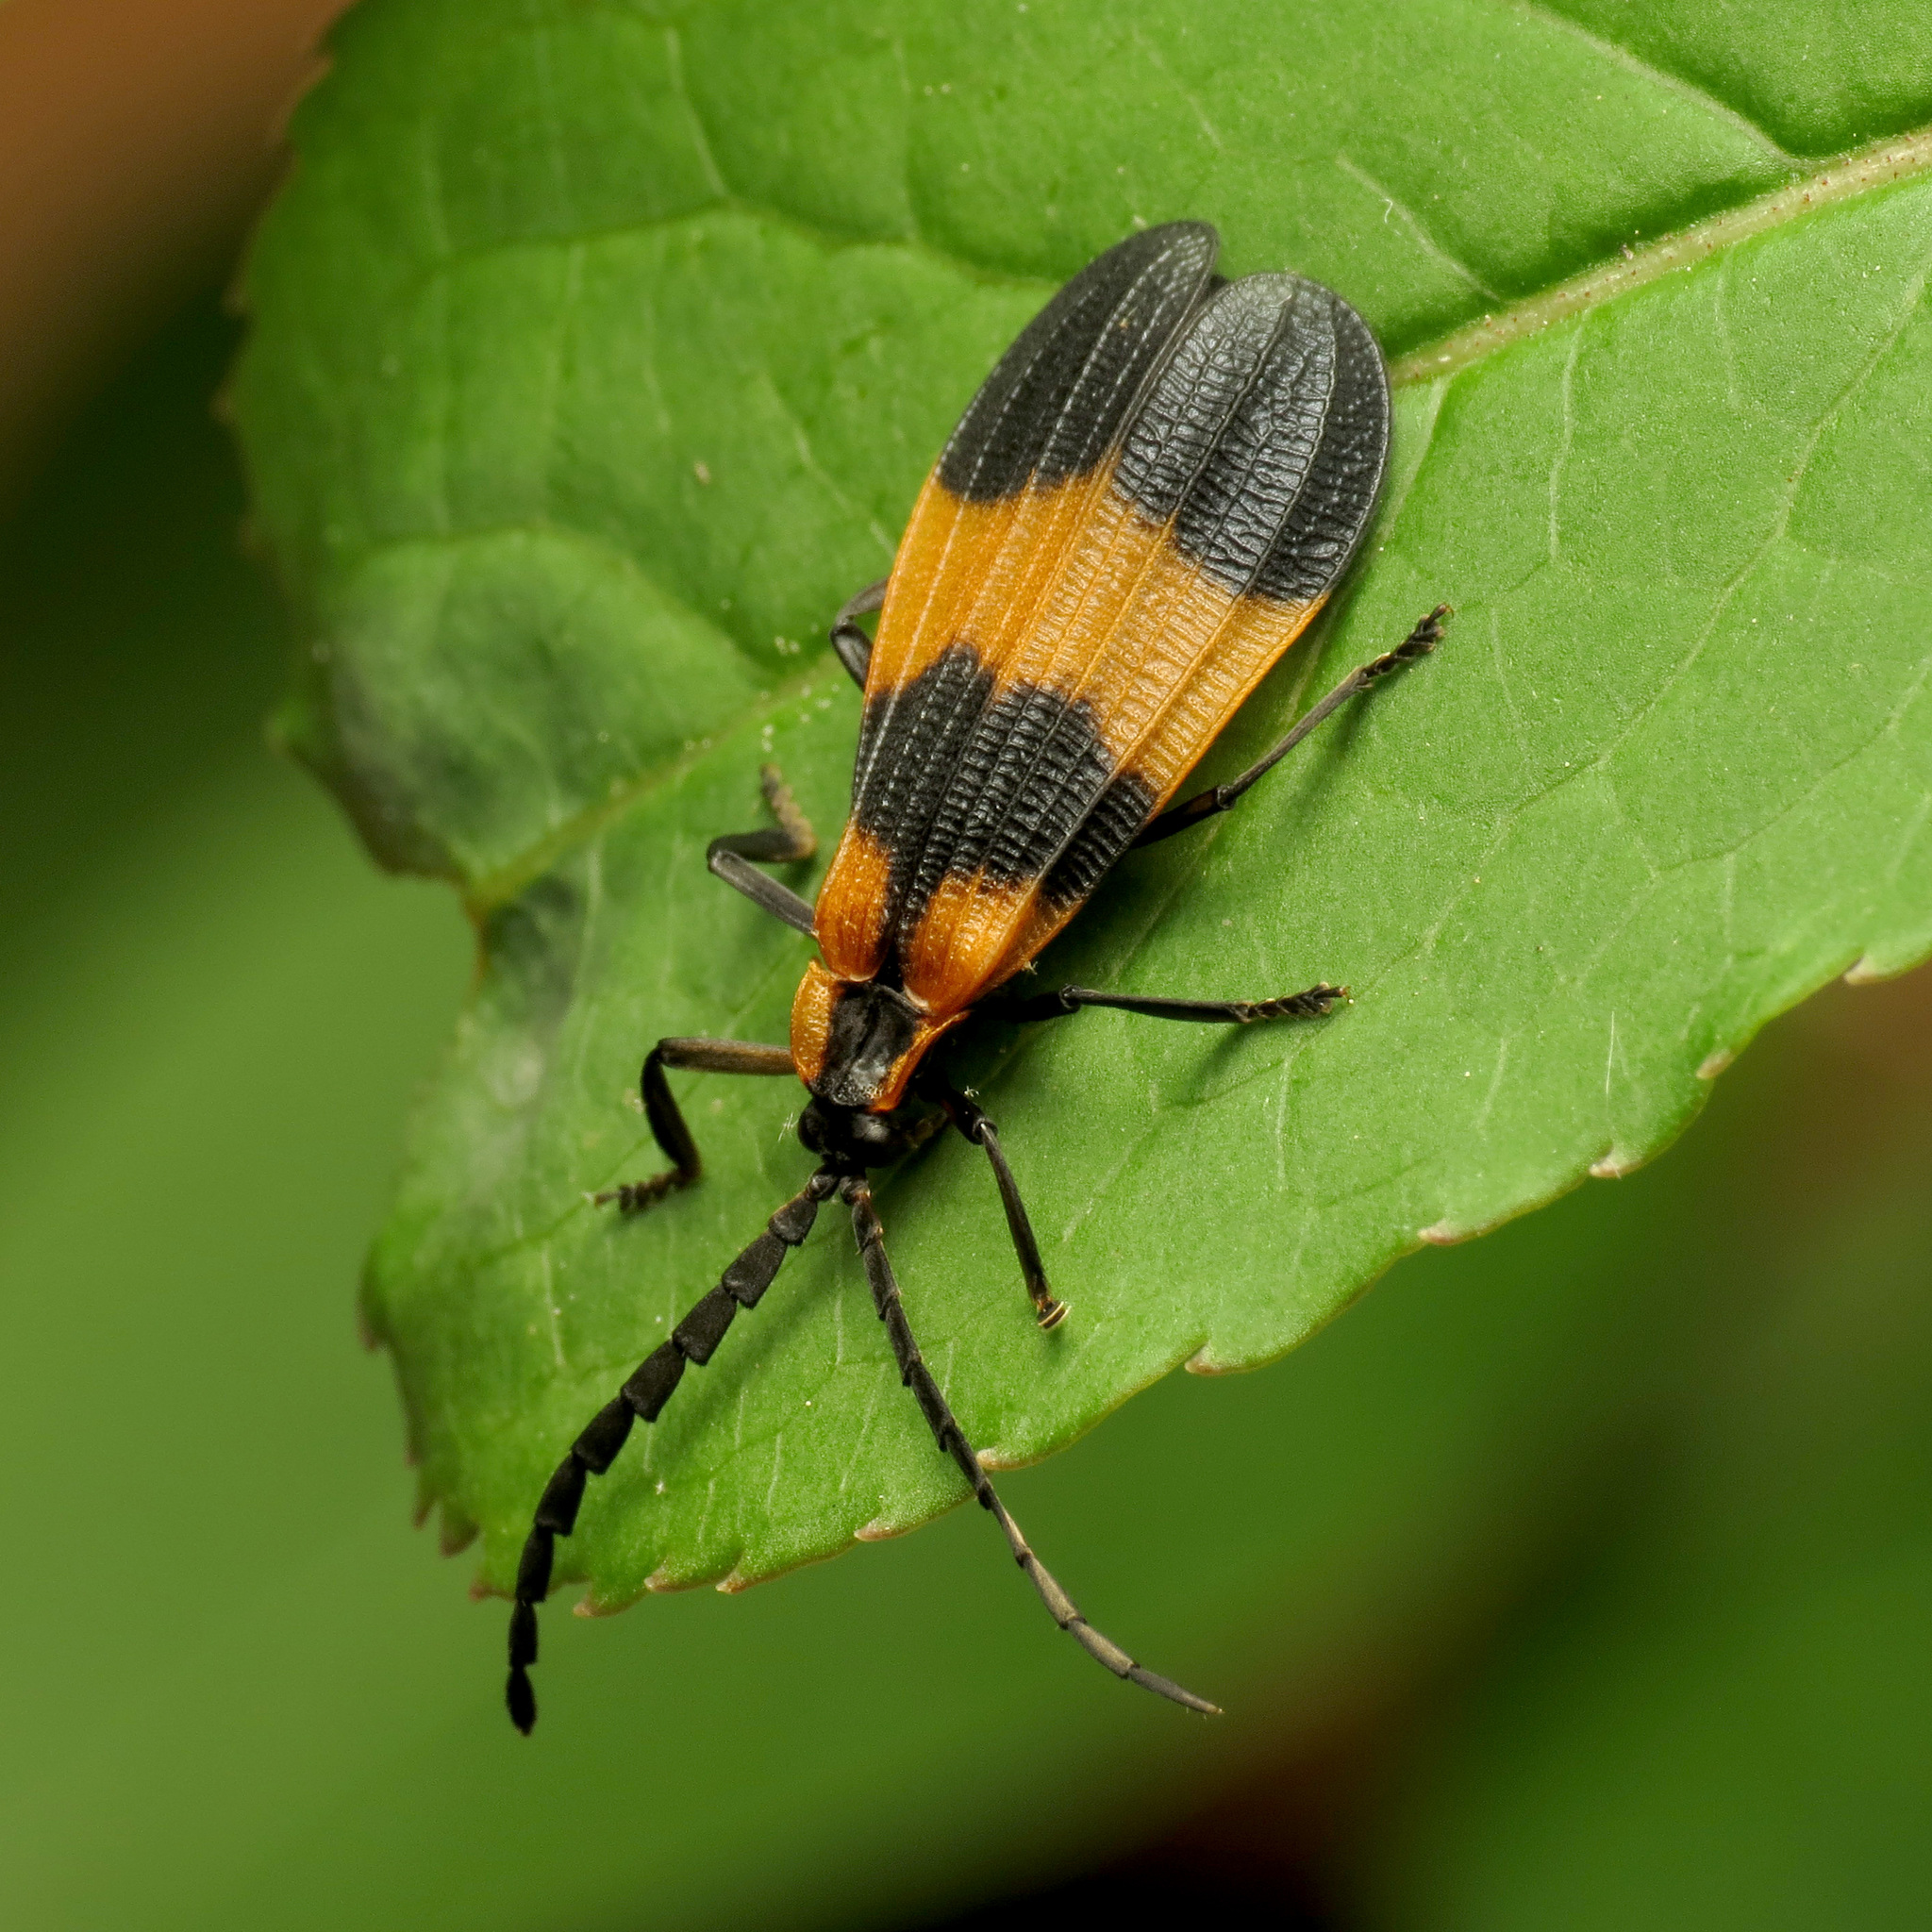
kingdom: Animalia
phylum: Arthropoda
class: Insecta
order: Coleoptera
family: Lycidae
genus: Calopteron
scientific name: Calopteron reticulatum
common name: Banded net-winged beetle
